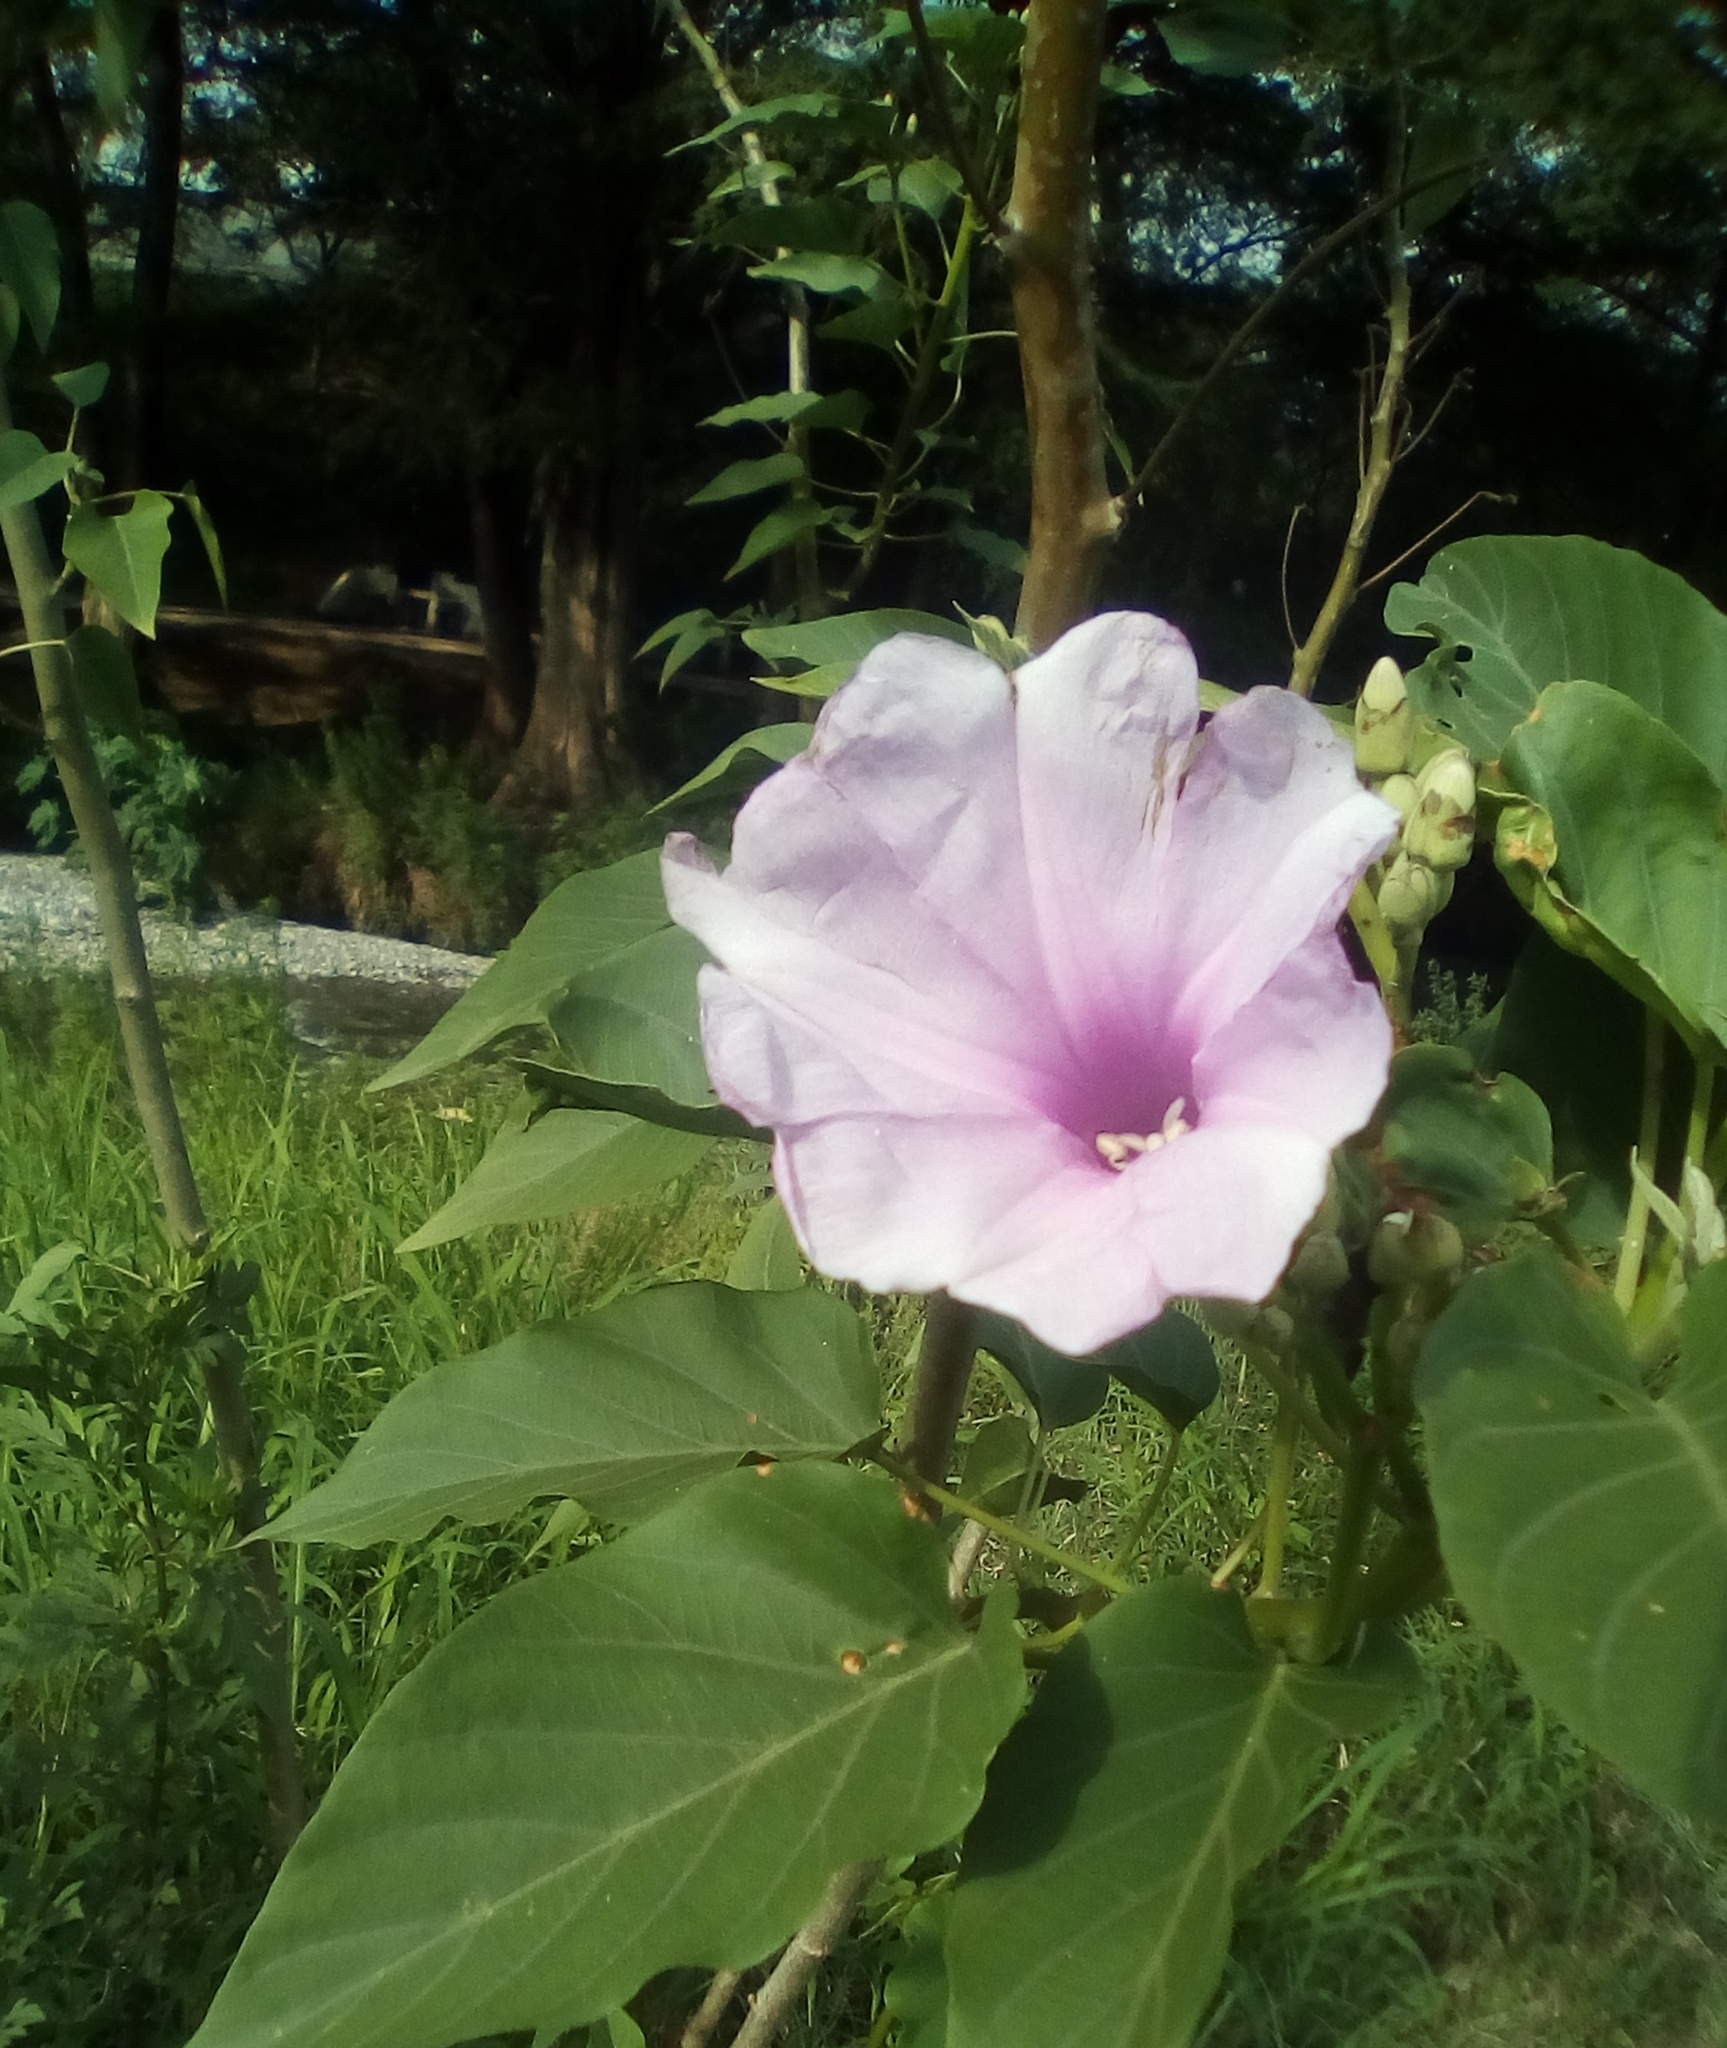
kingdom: Plantae
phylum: Tracheophyta
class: Magnoliopsida
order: Solanales
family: Convolvulaceae
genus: Ipomoea
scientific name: Ipomoea carnea
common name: Morning-glory
